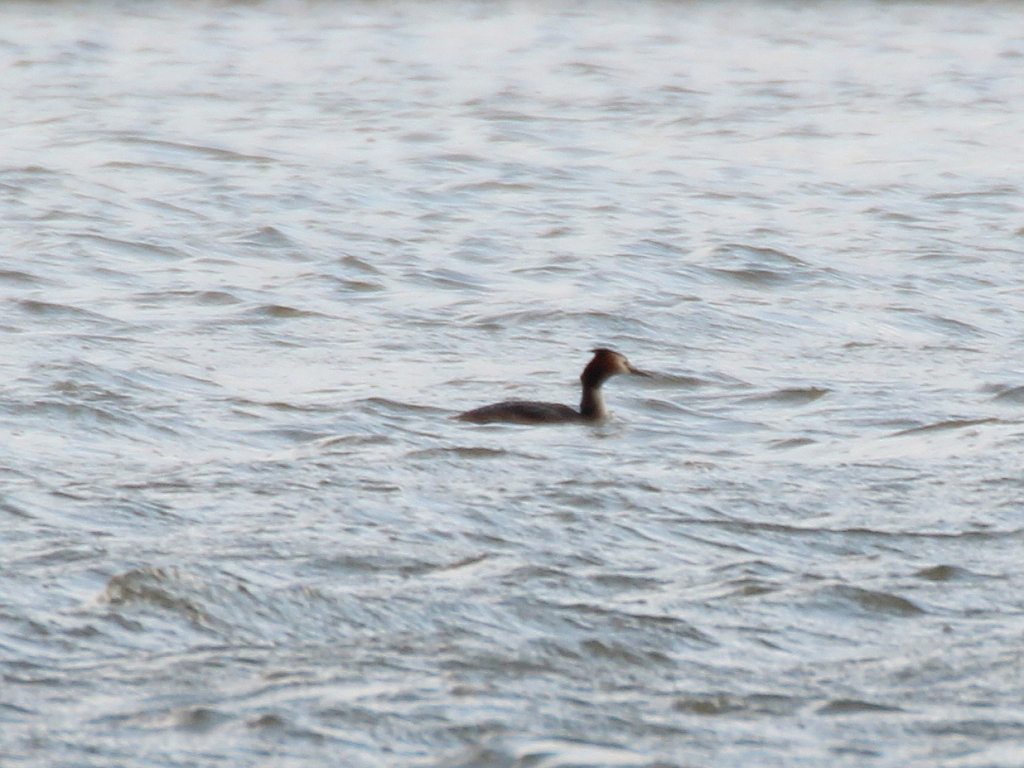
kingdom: Animalia
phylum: Chordata
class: Aves
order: Podicipediformes
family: Podicipedidae
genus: Podiceps
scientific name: Podiceps cristatus
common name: Great crested grebe
